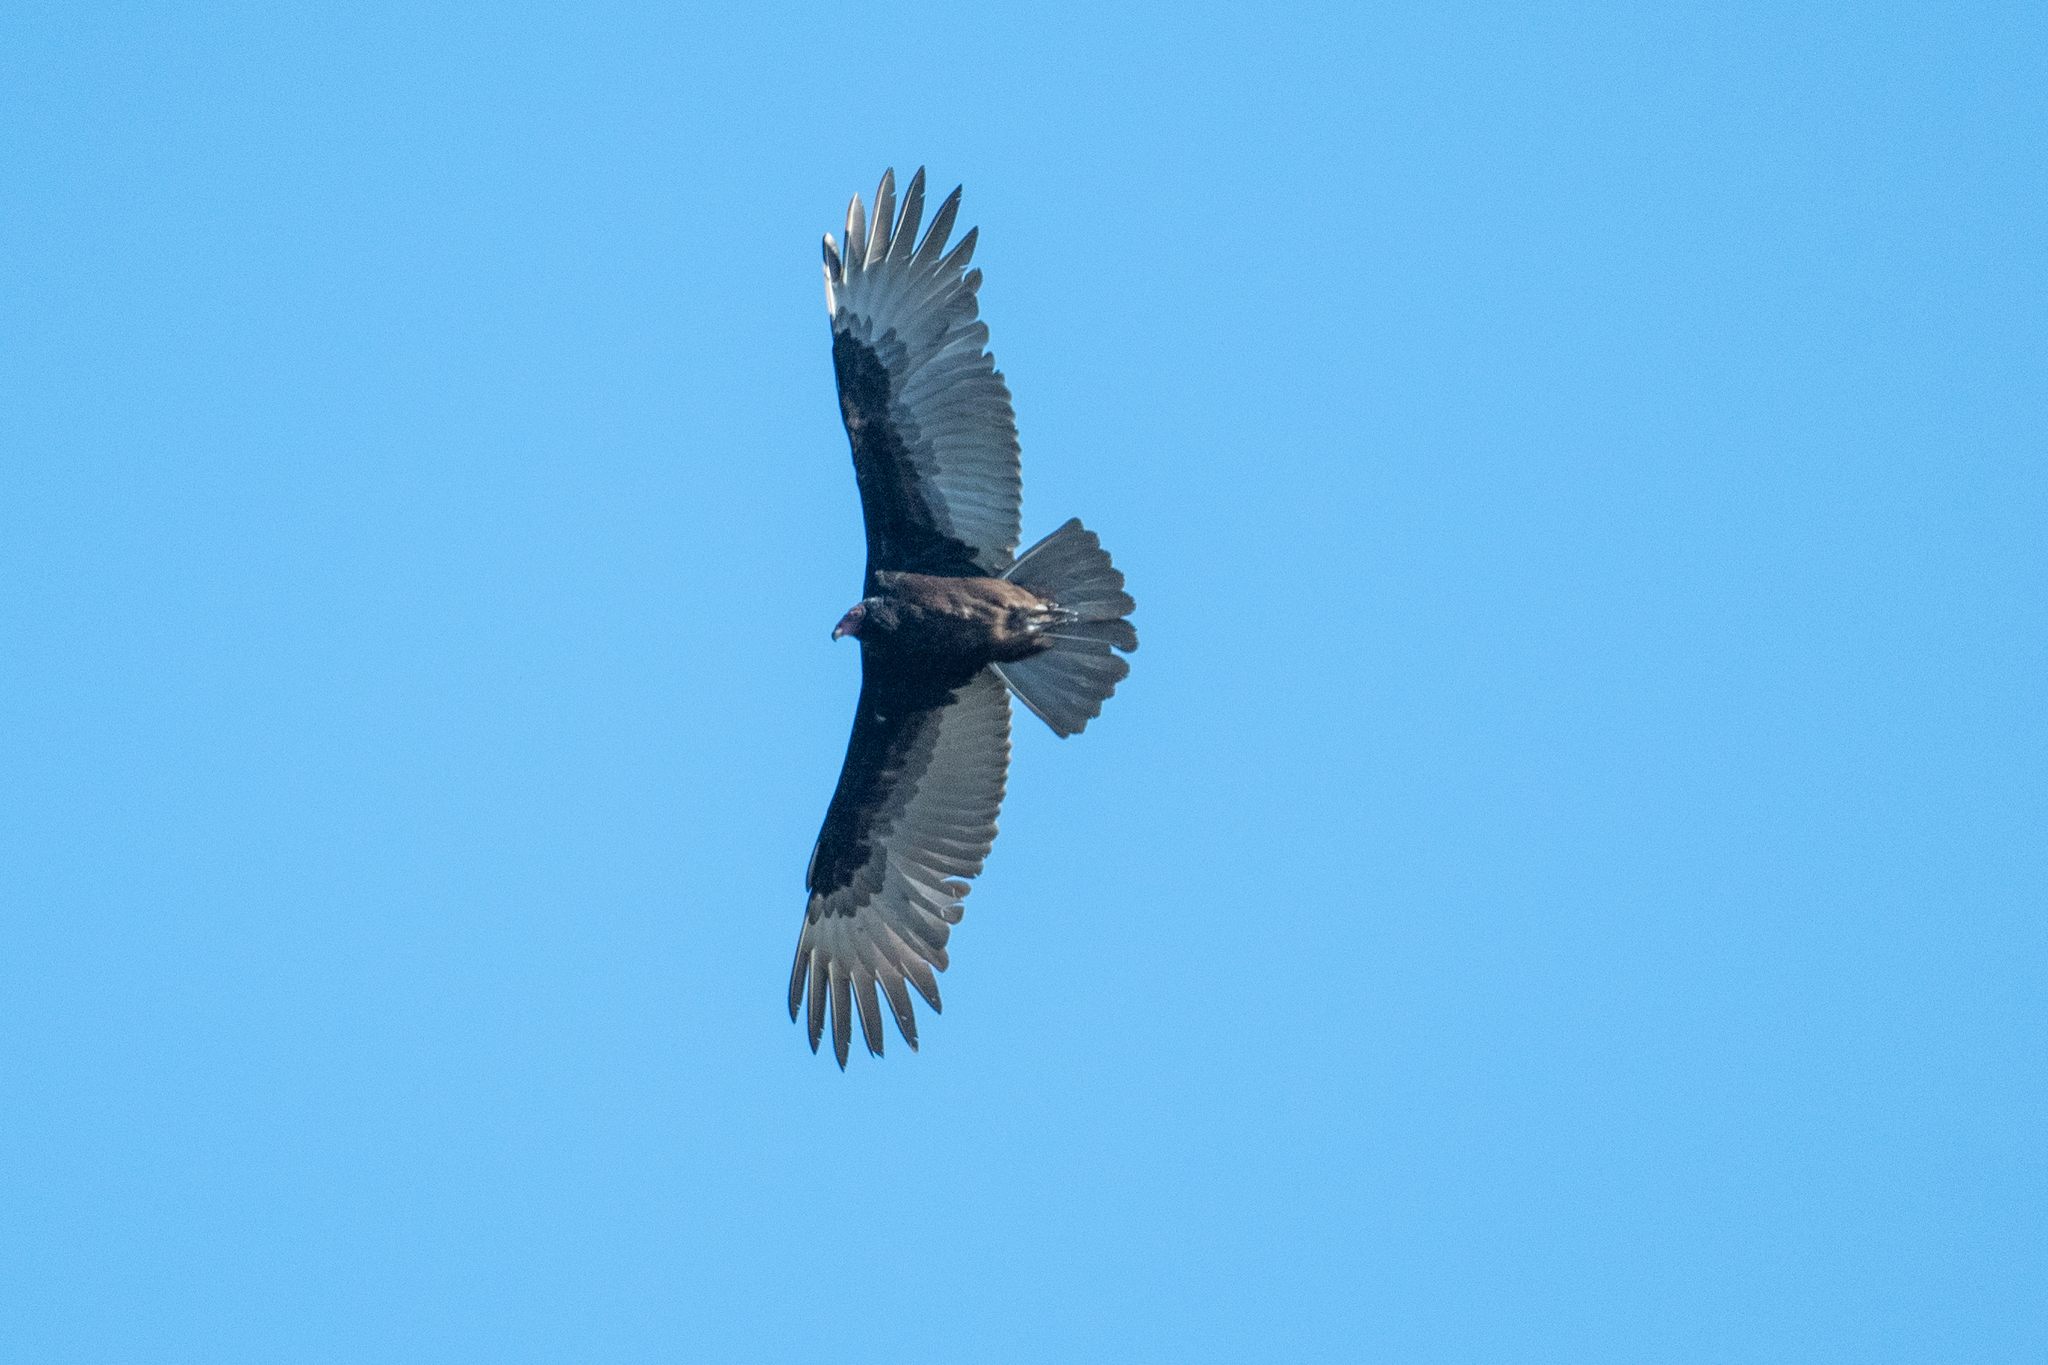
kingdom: Animalia
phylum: Chordata
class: Aves
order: Accipitriformes
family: Cathartidae
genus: Cathartes
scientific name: Cathartes aura
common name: Turkey vulture
